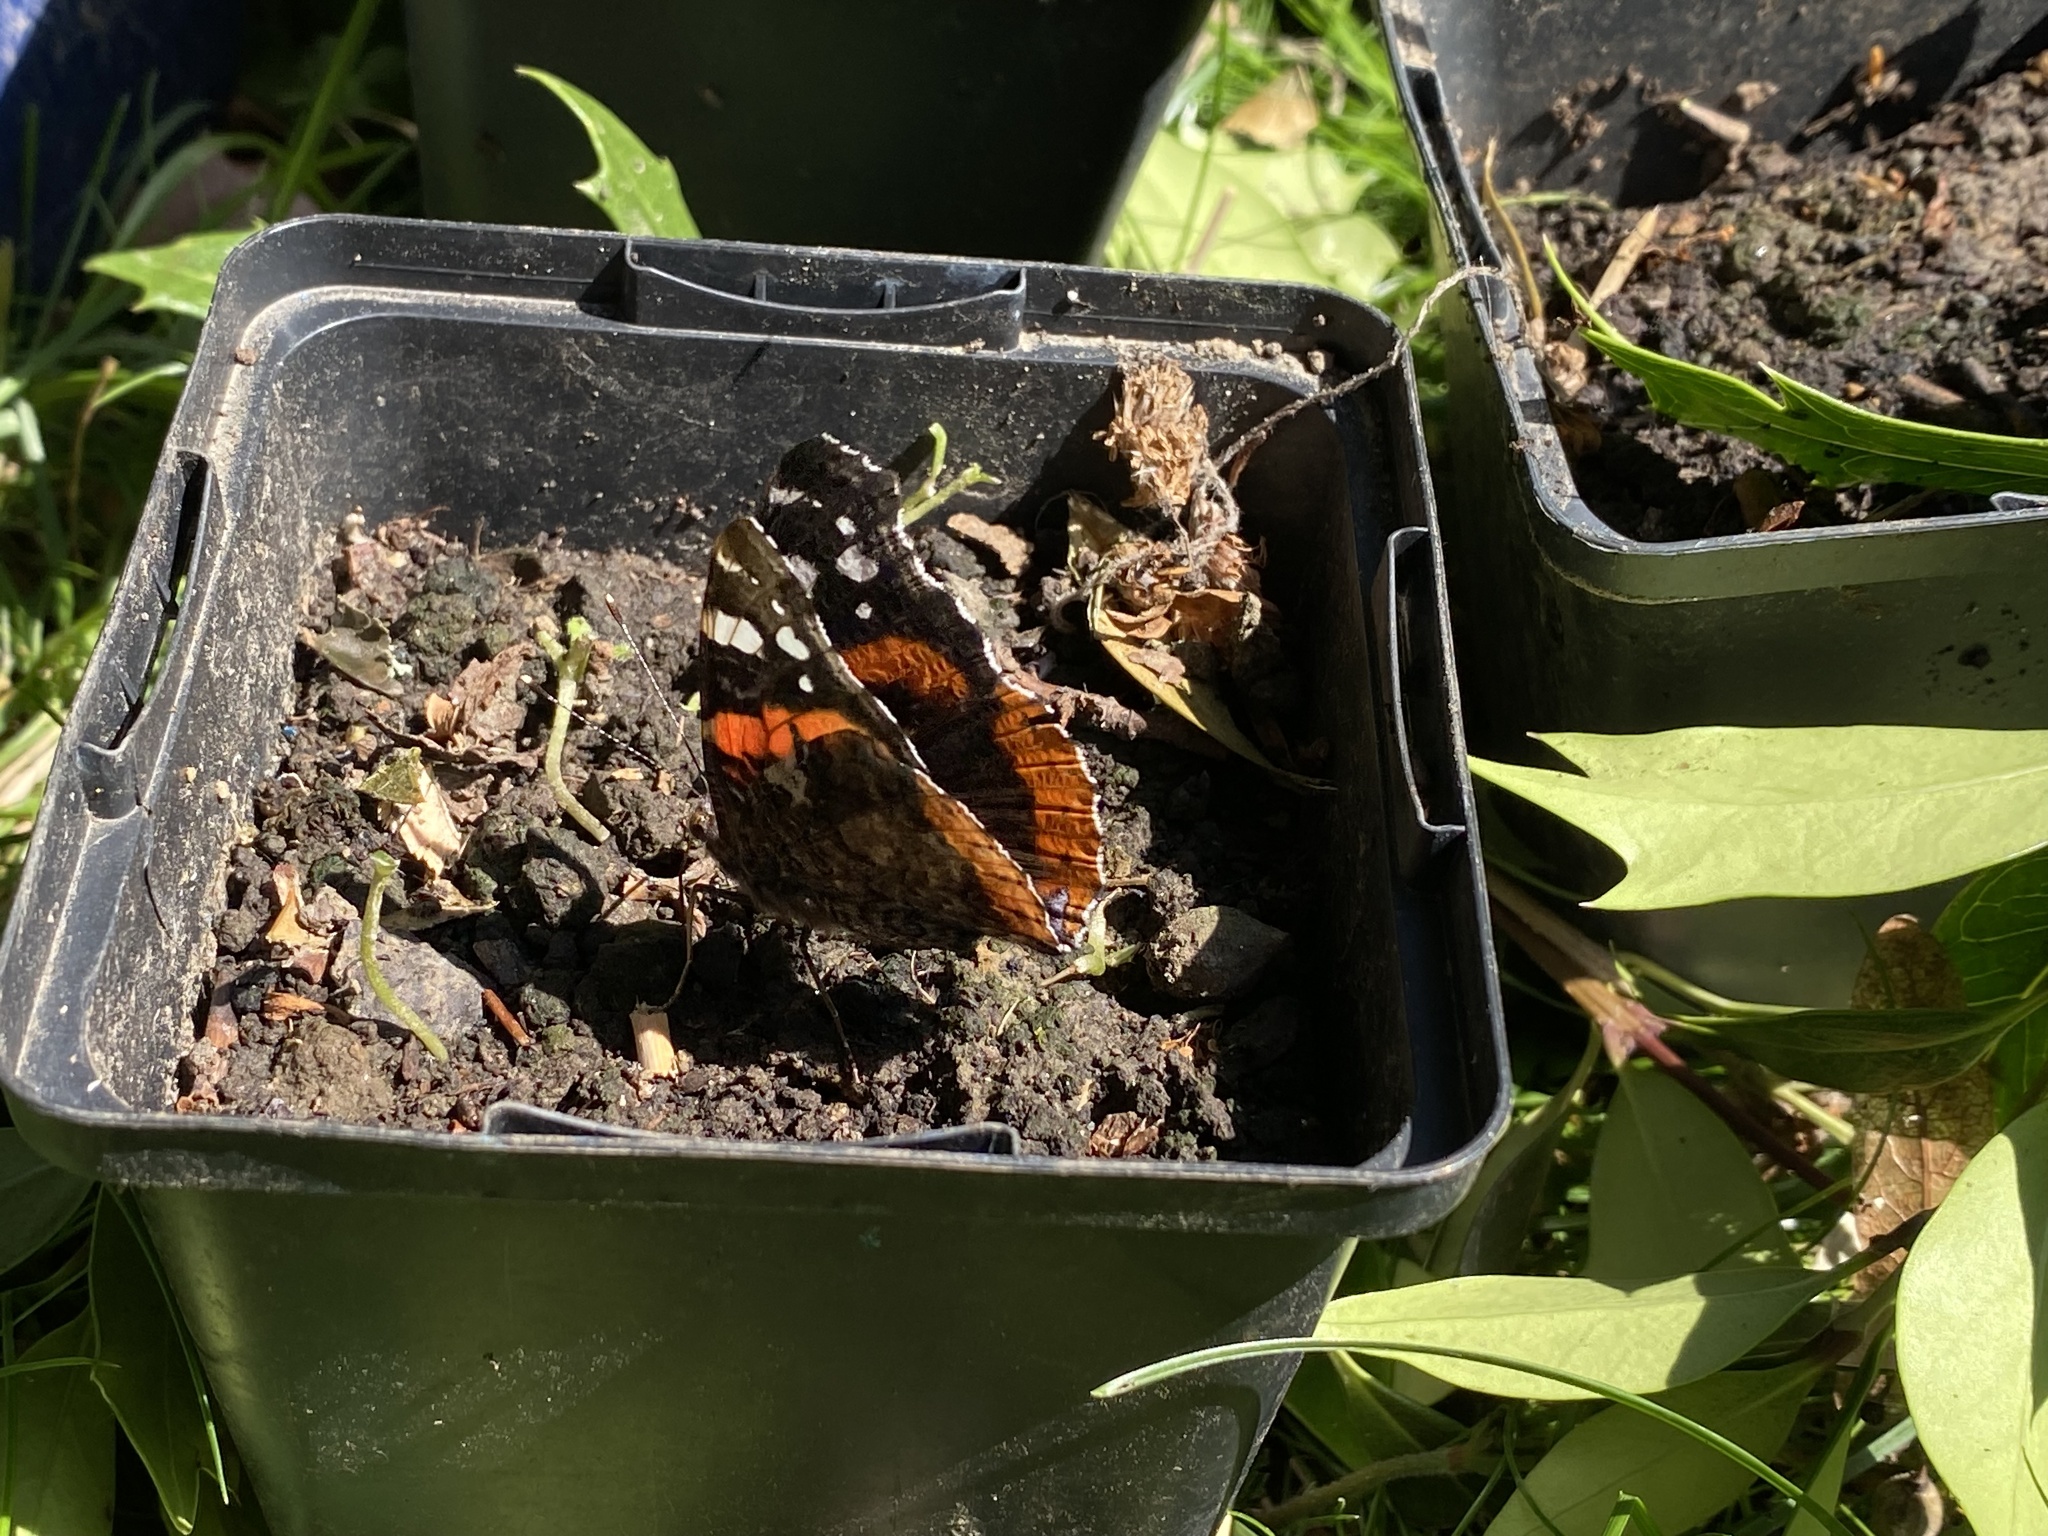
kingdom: Animalia
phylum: Arthropoda
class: Insecta
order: Lepidoptera
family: Nymphalidae
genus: Vanessa
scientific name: Vanessa atalanta
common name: Red admiral
